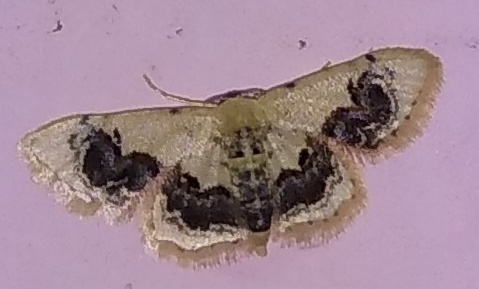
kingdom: Animalia
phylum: Arthropoda
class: Insecta
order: Lepidoptera
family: Geometridae
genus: Idaea
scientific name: Idaea macrospila
